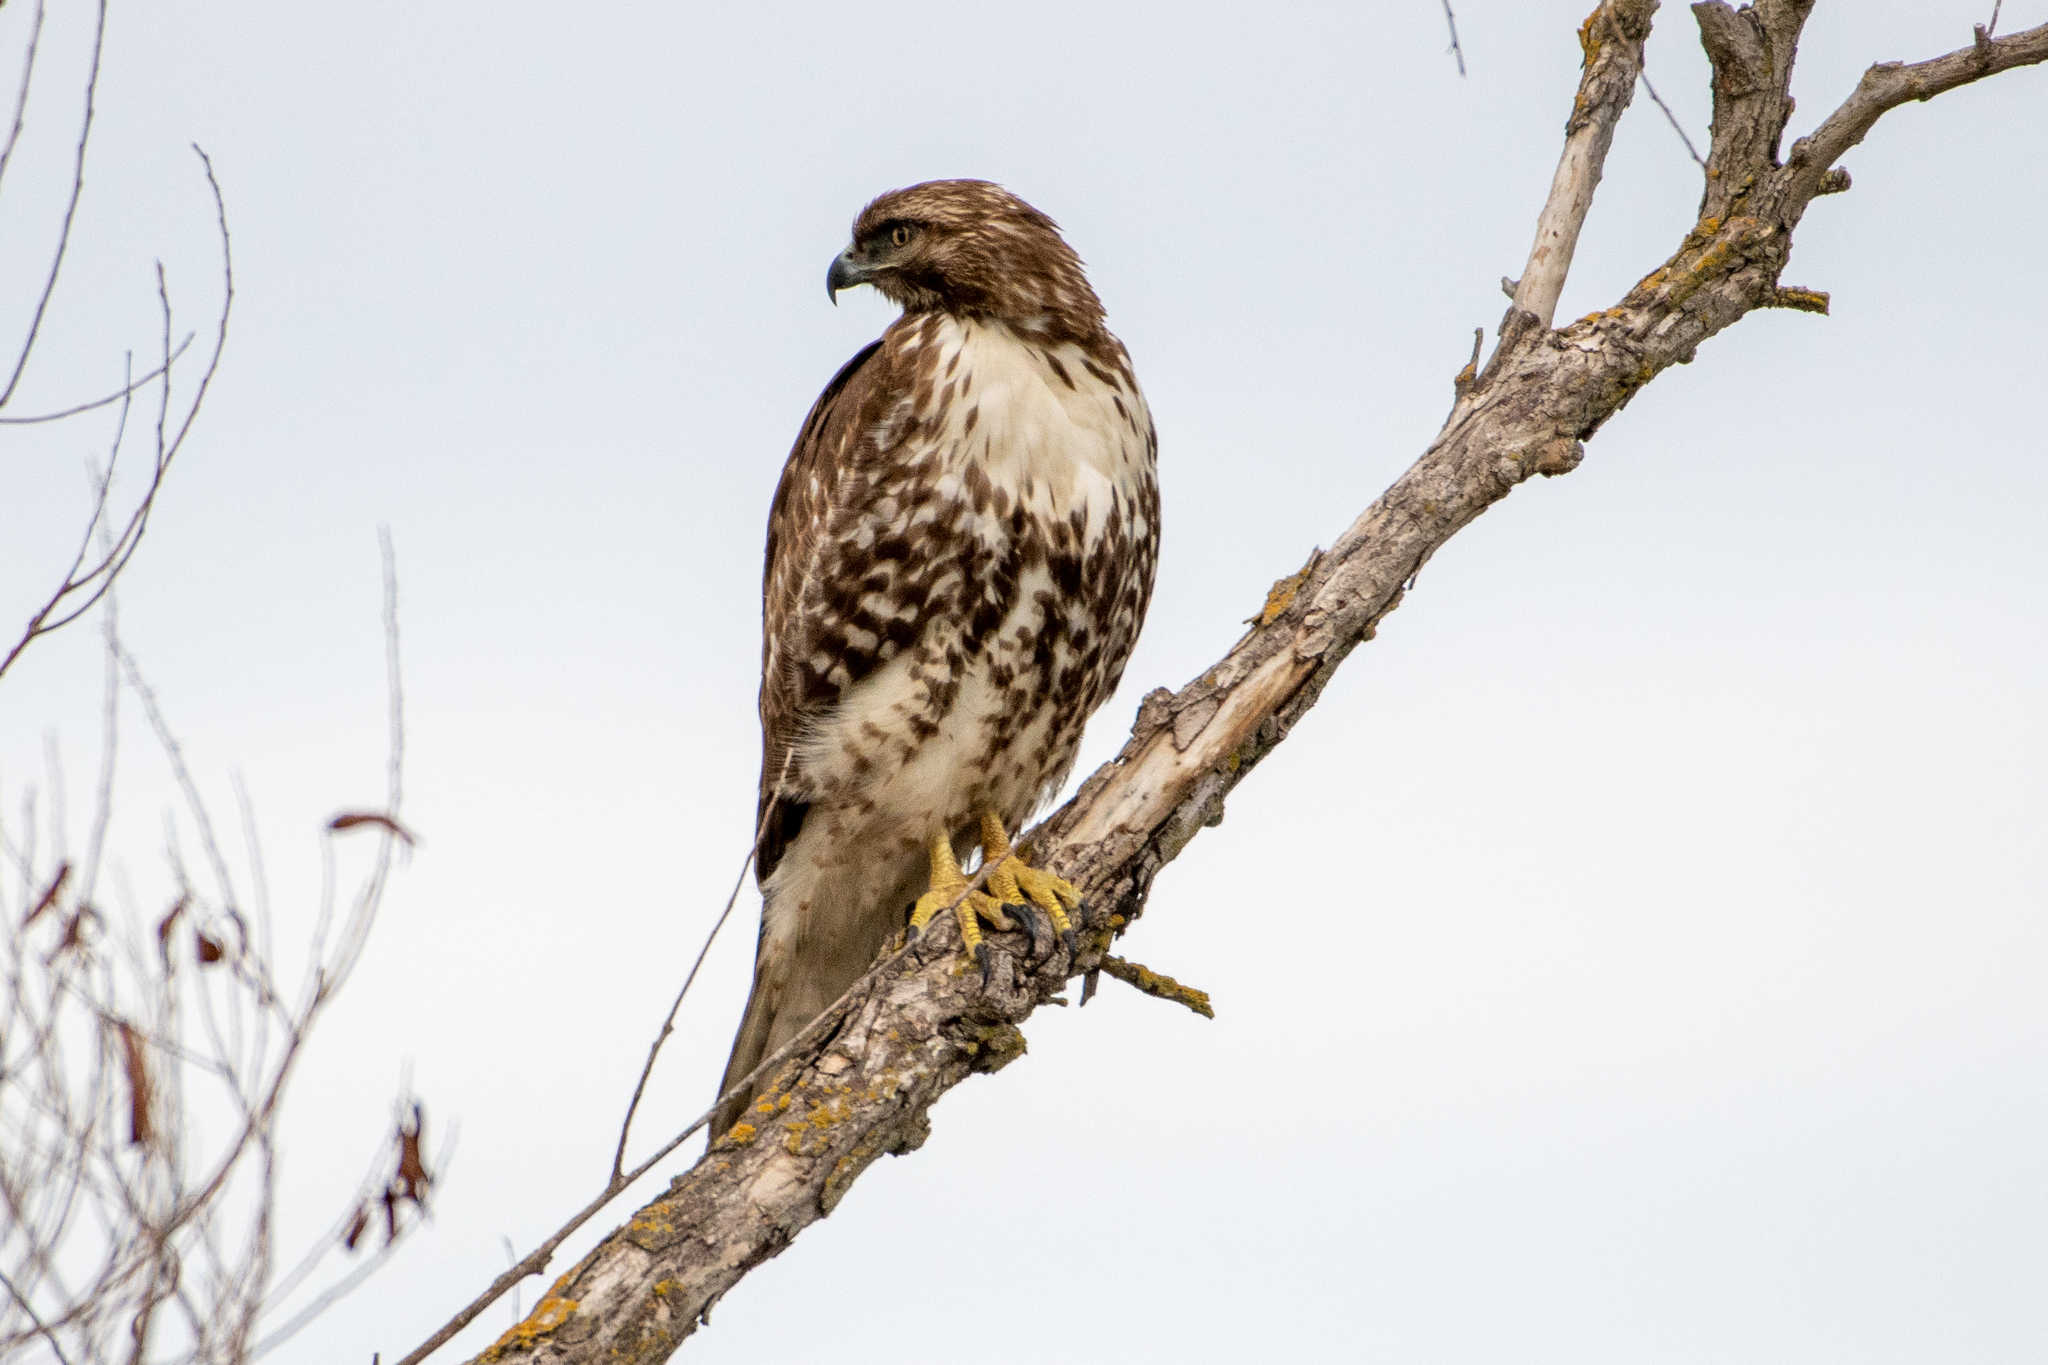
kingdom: Animalia
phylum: Chordata
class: Aves
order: Accipitriformes
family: Accipitridae
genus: Buteo
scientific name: Buteo jamaicensis
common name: Red-tailed hawk
